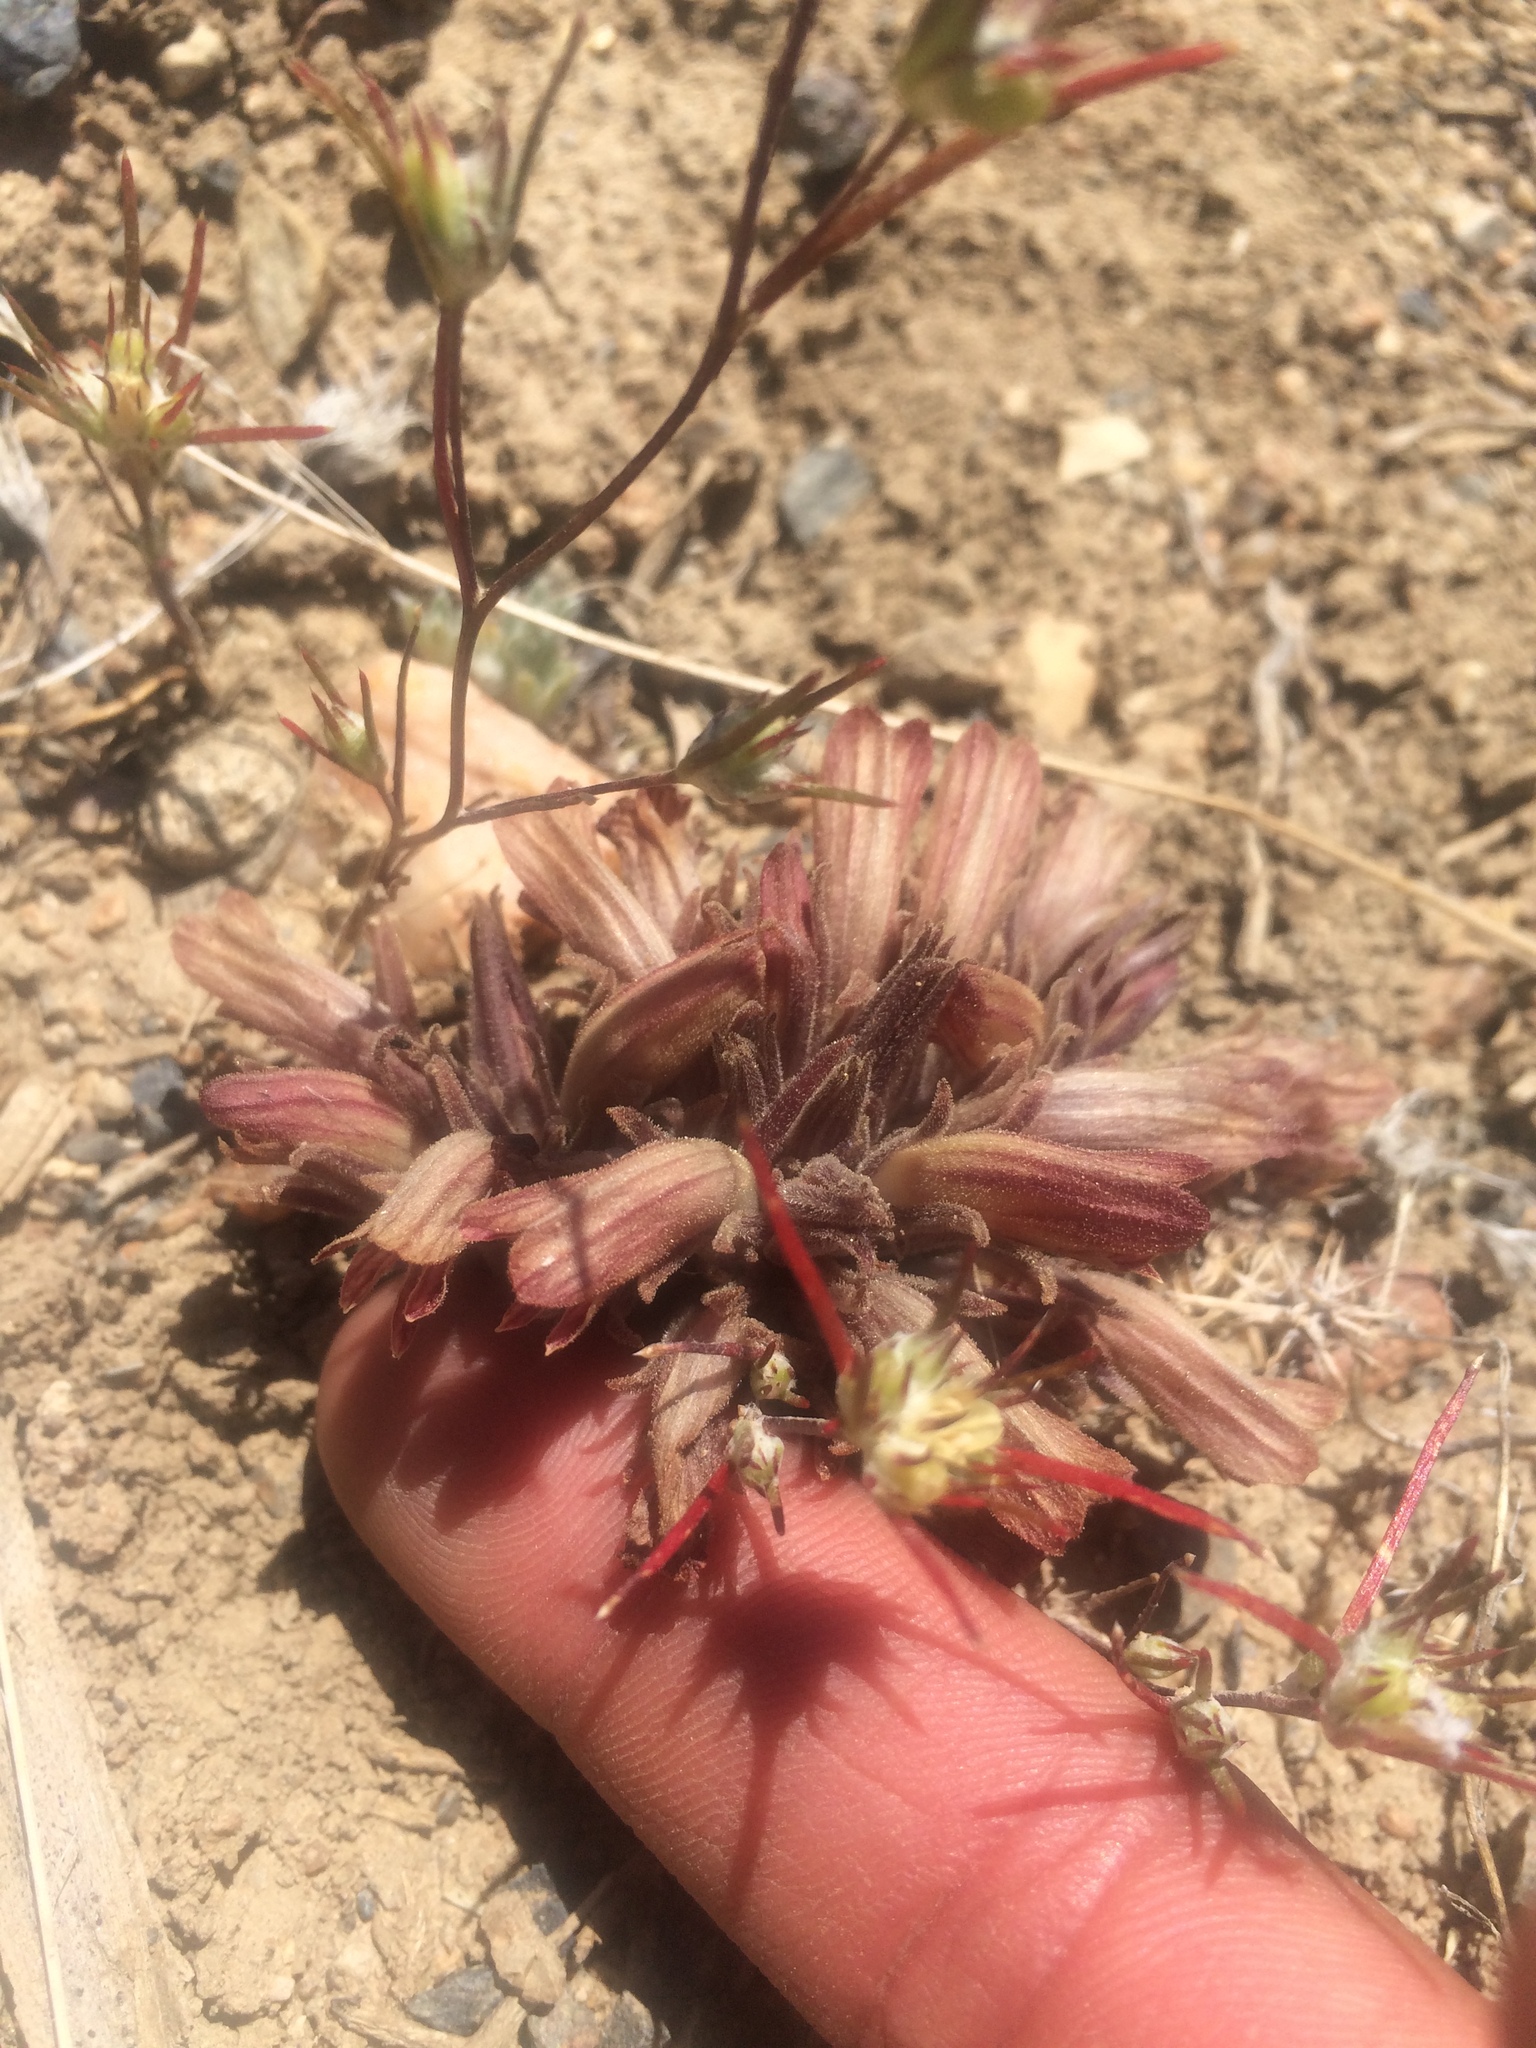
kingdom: Plantae
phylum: Tracheophyta
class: Magnoliopsida
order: Lamiales
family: Orobanchaceae
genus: Aphyllon
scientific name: Aphyllon corymbosum
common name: Flat-top broomrape
